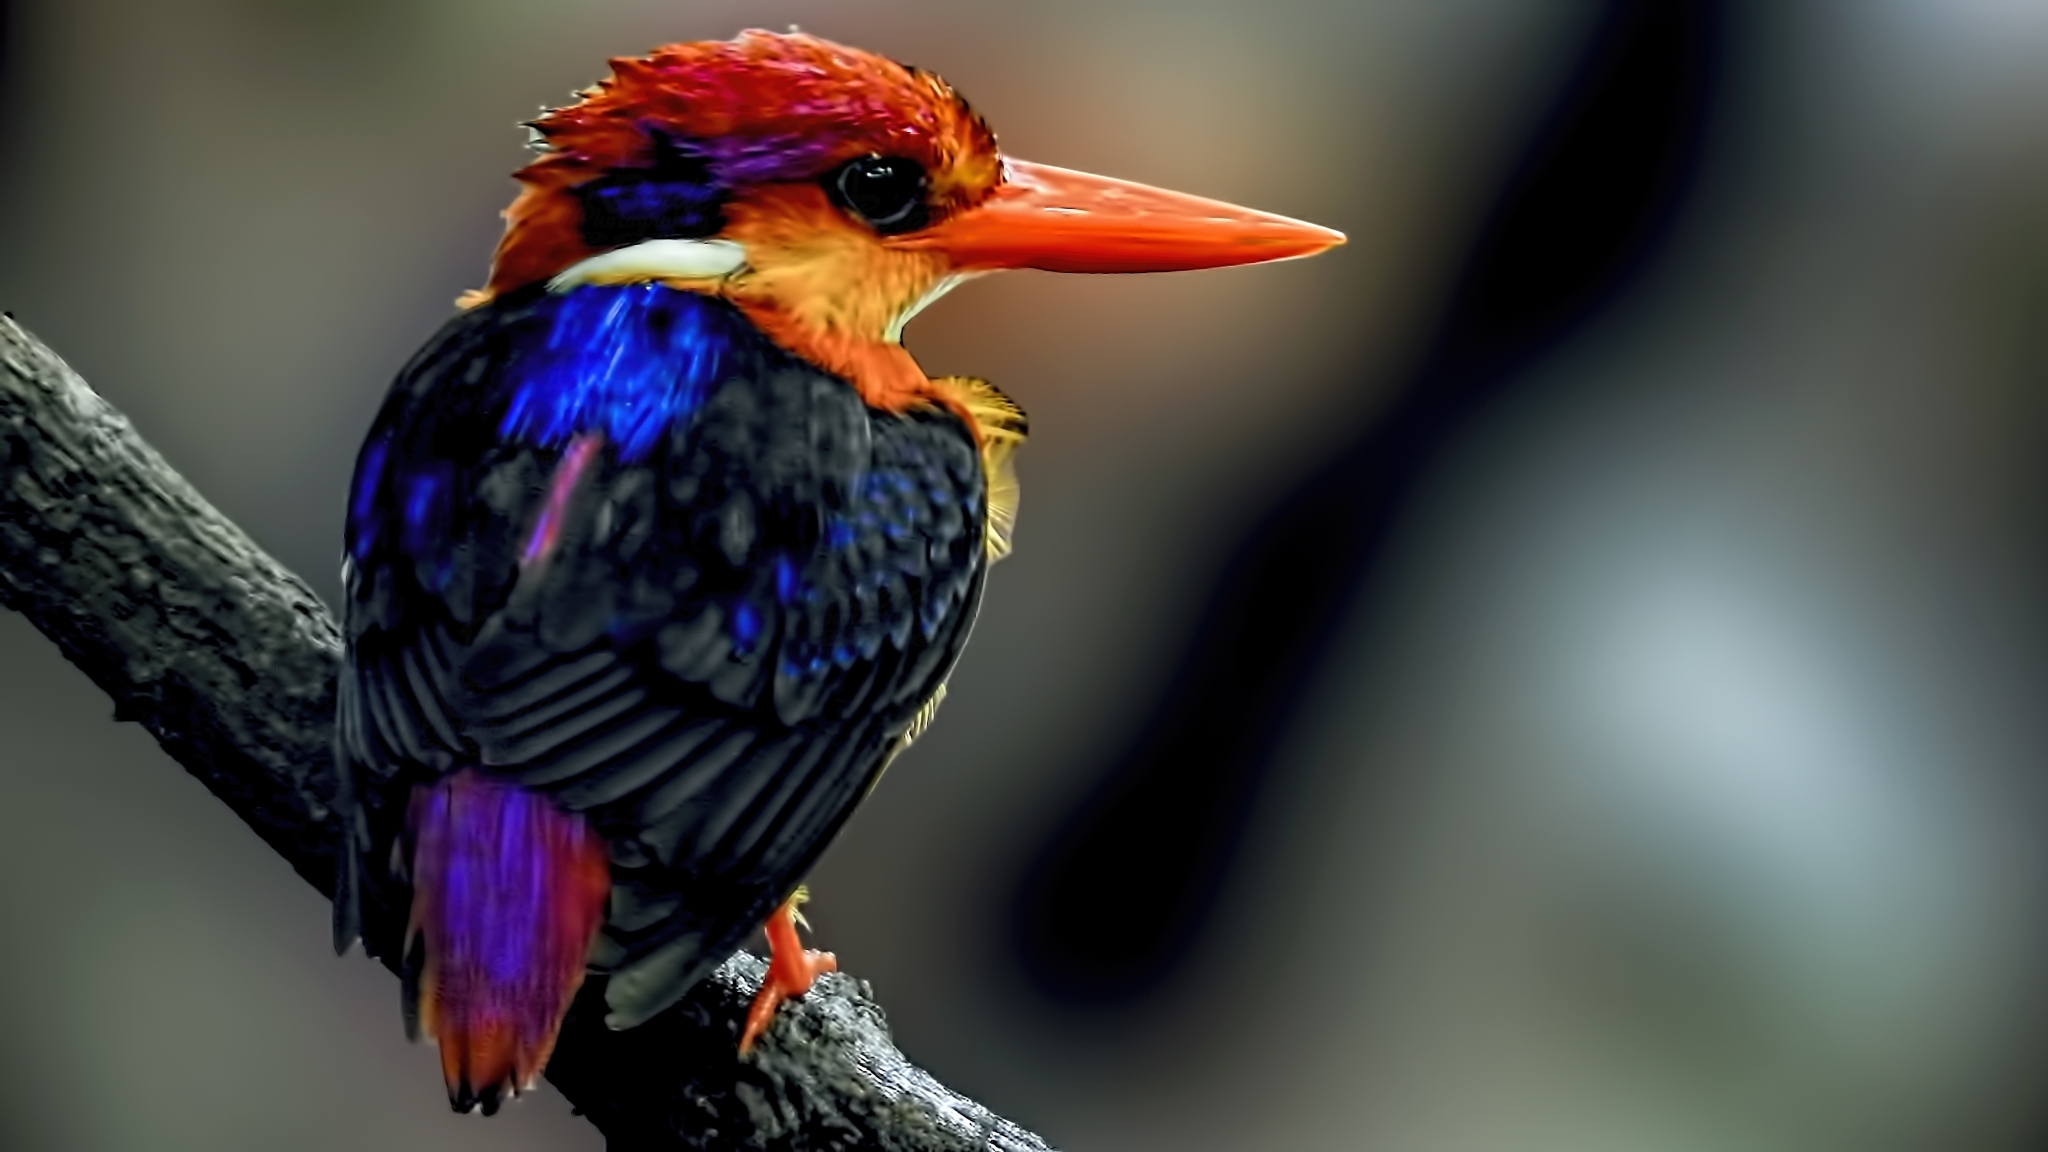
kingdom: Animalia
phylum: Chordata
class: Aves
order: Coraciiformes
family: Alcedinidae
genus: Ceyx
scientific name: Ceyx erithaca
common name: Oriental dwarf kingfisher
